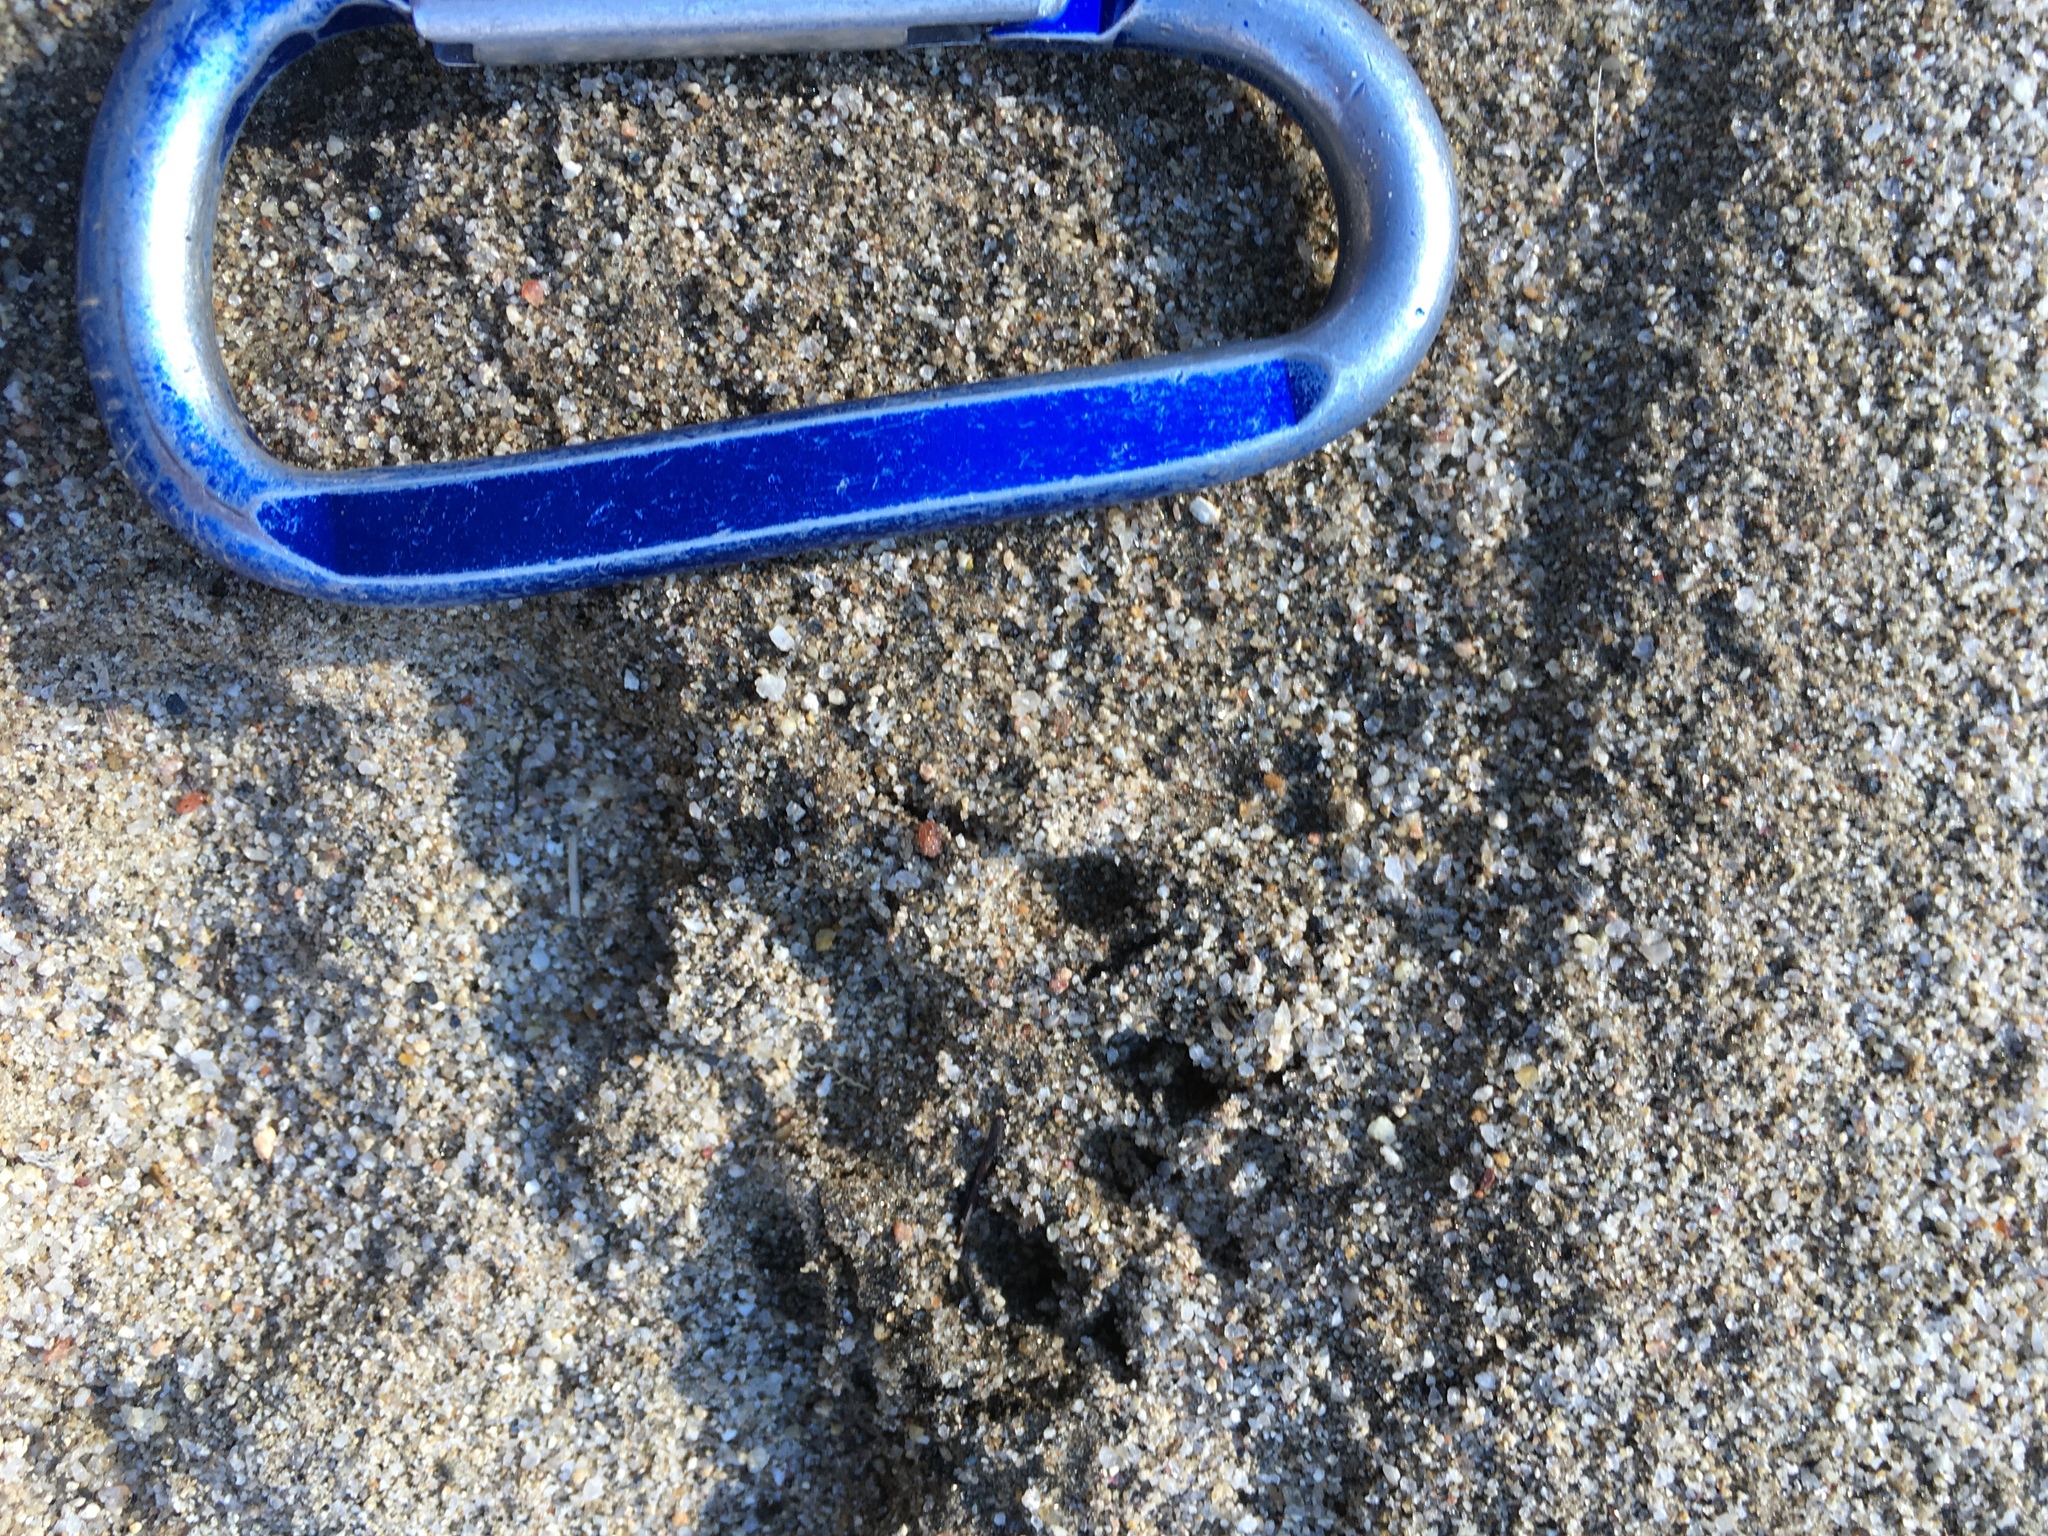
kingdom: Animalia
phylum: Chordata
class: Mammalia
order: Carnivora
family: Procyonidae
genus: Procyon
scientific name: Procyon lotor
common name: Raccoon
